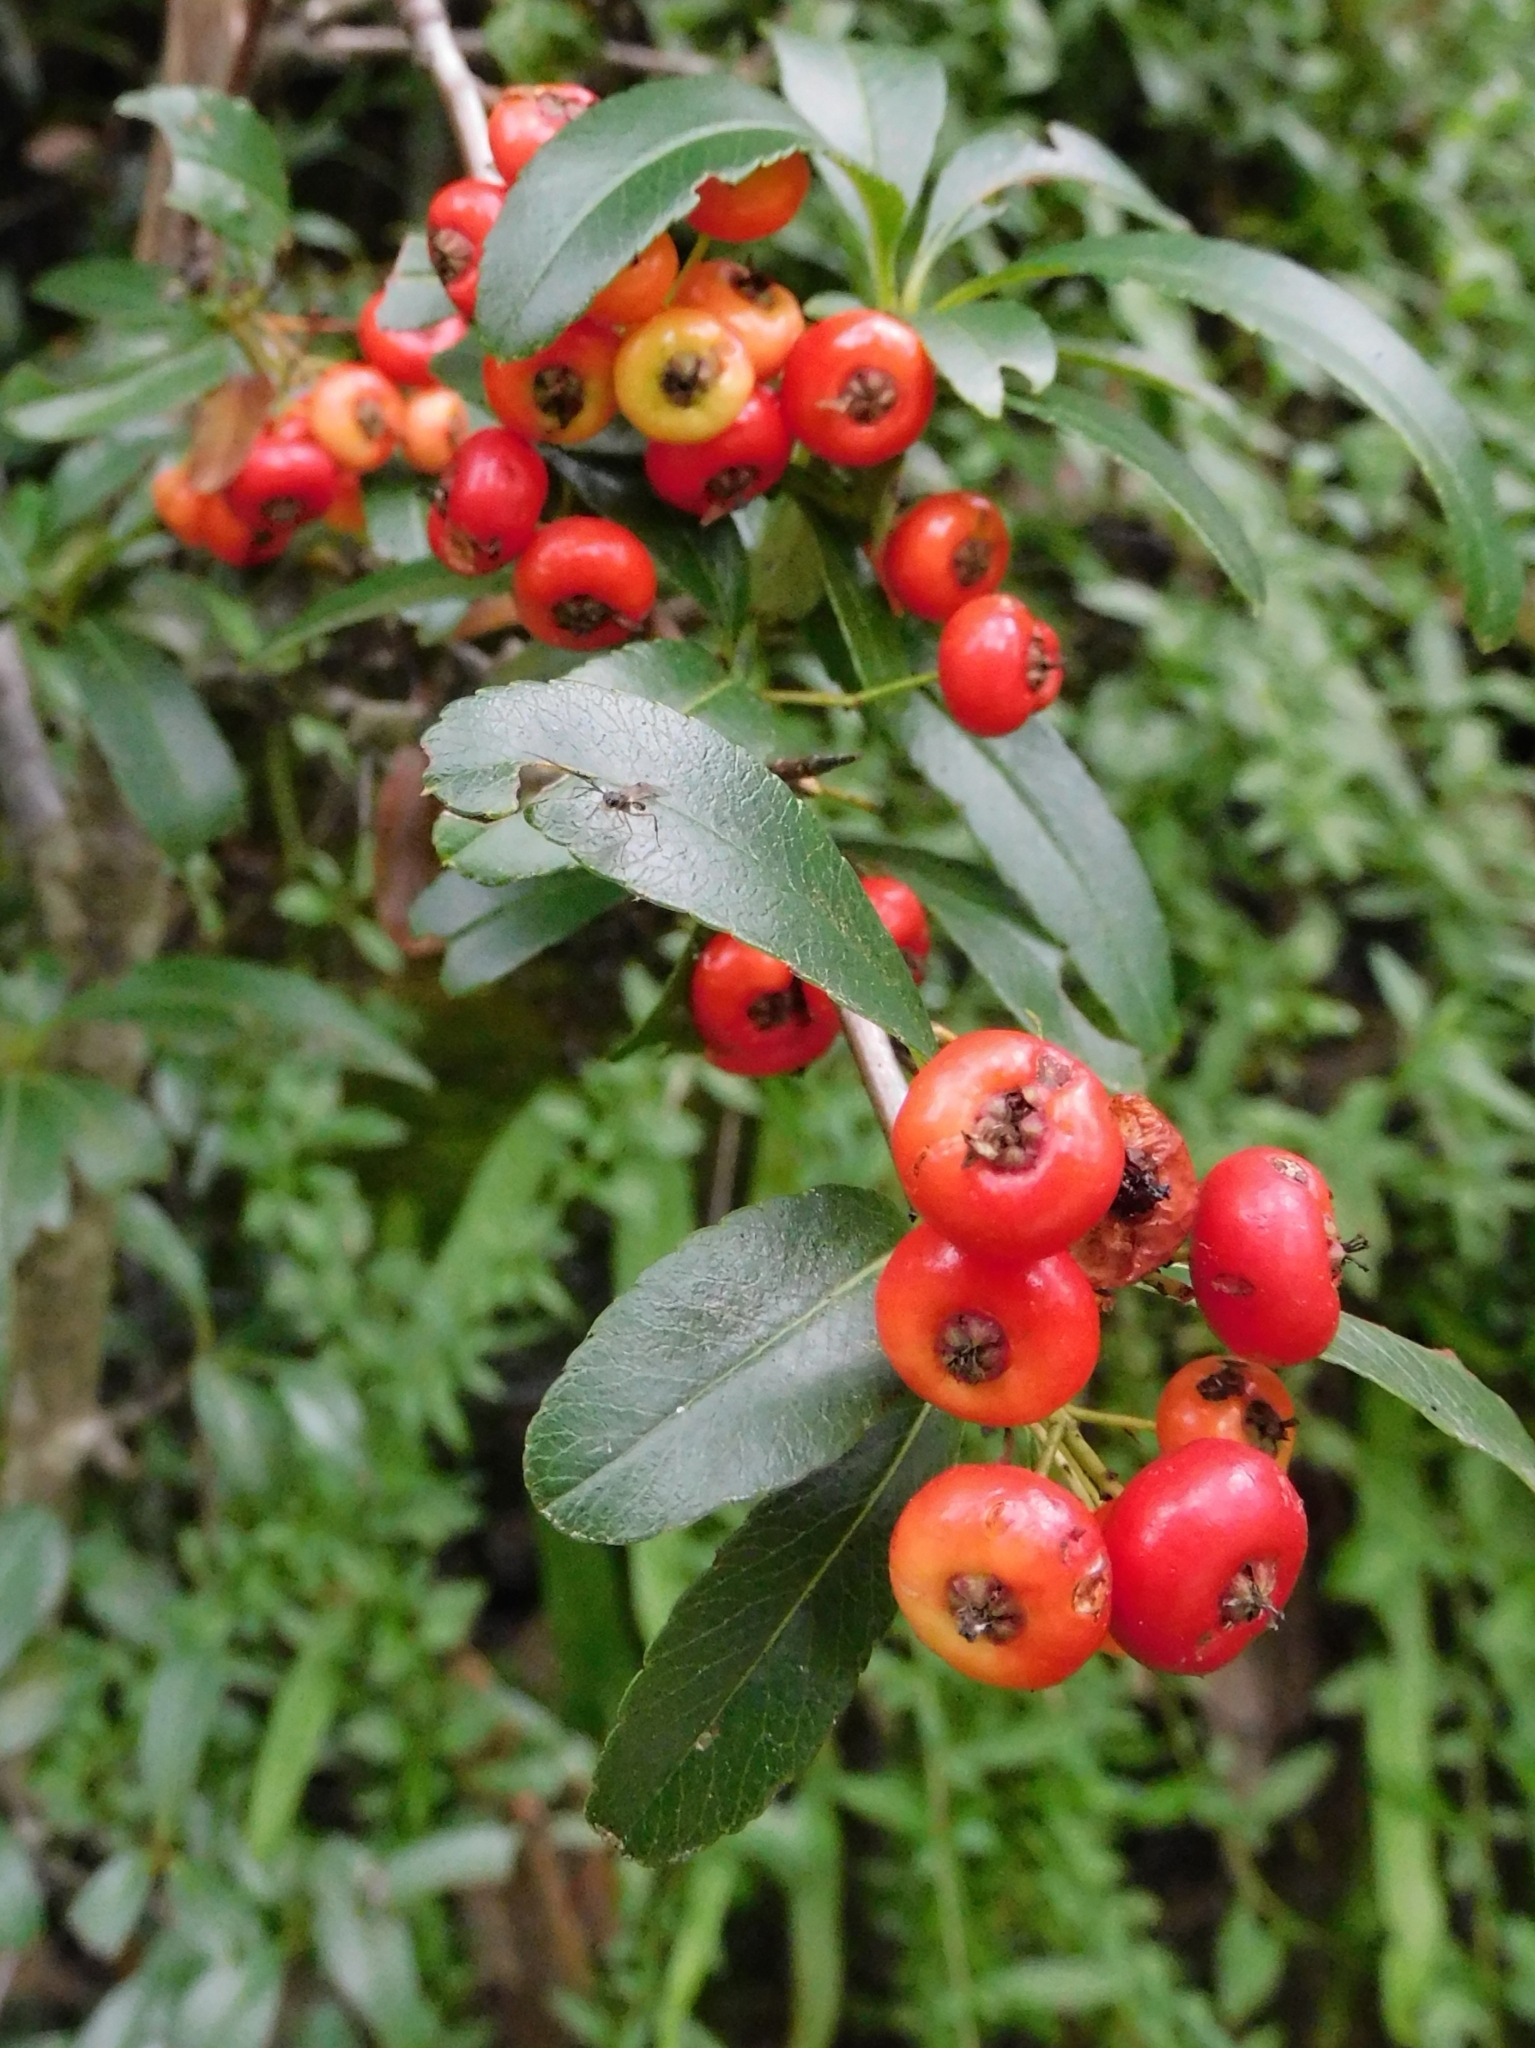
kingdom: Plantae
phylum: Tracheophyta
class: Magnoliopsida
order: Rosales
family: Rosaceae
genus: Pyracantha
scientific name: Pyracantha crenulata
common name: Nepalese firethorn
